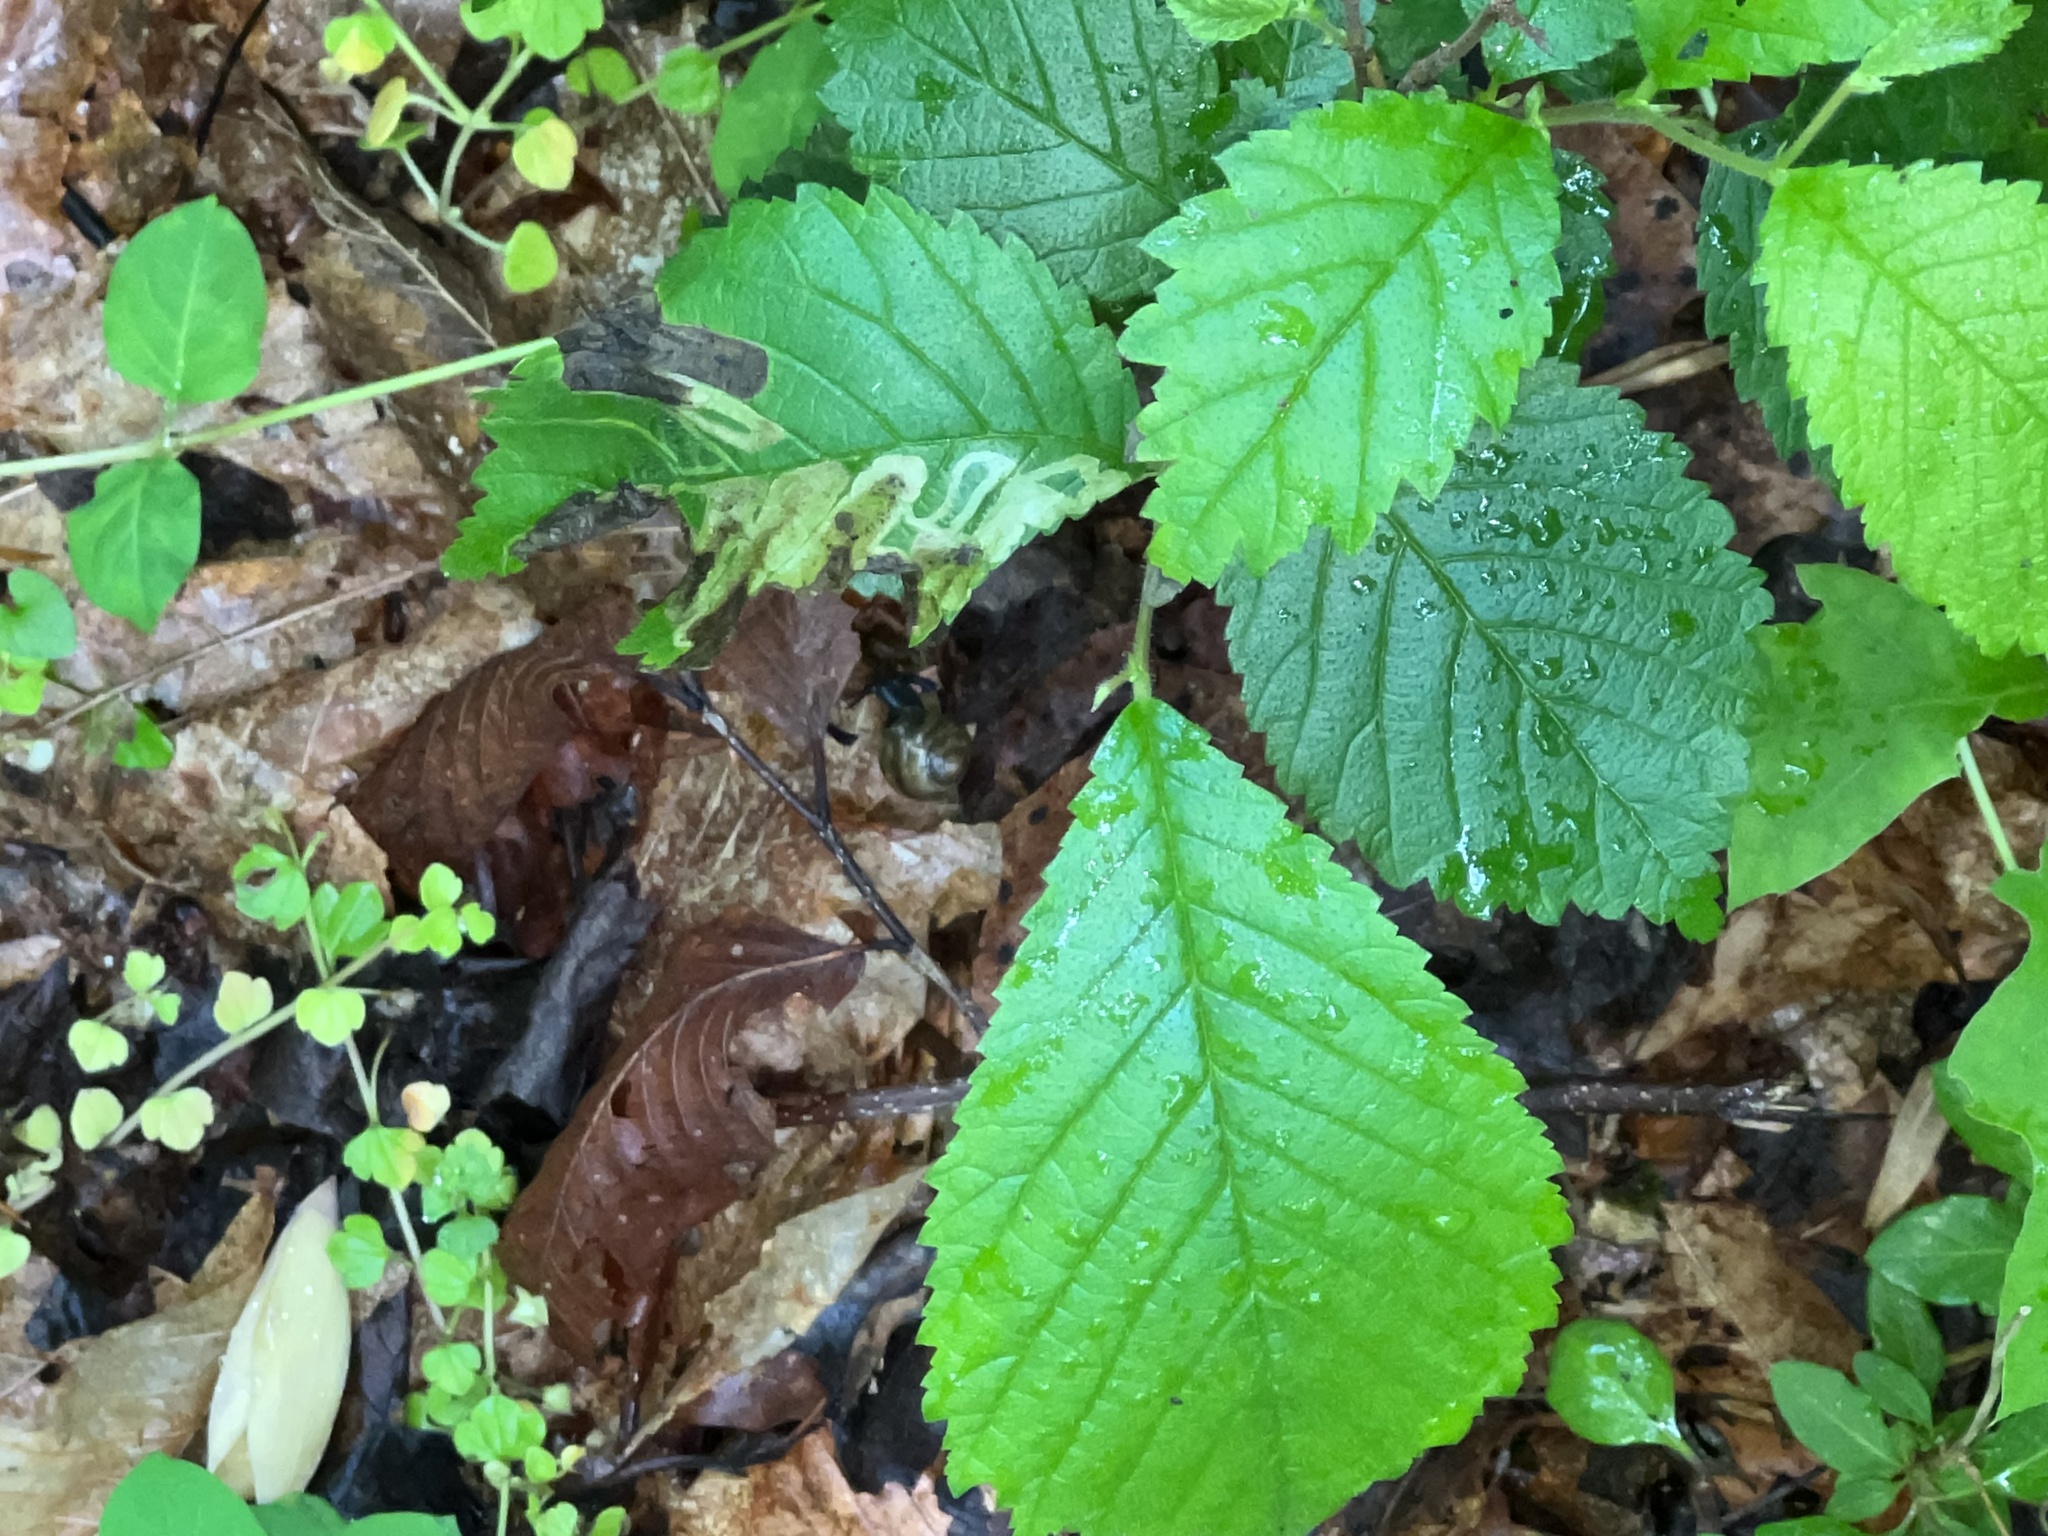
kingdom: Animalia
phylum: Arthropoda
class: Insecta
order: Diptera
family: Agromyzidae
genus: Agromyza
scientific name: Agromyza aristata
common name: Elm agromyzid leafminer
